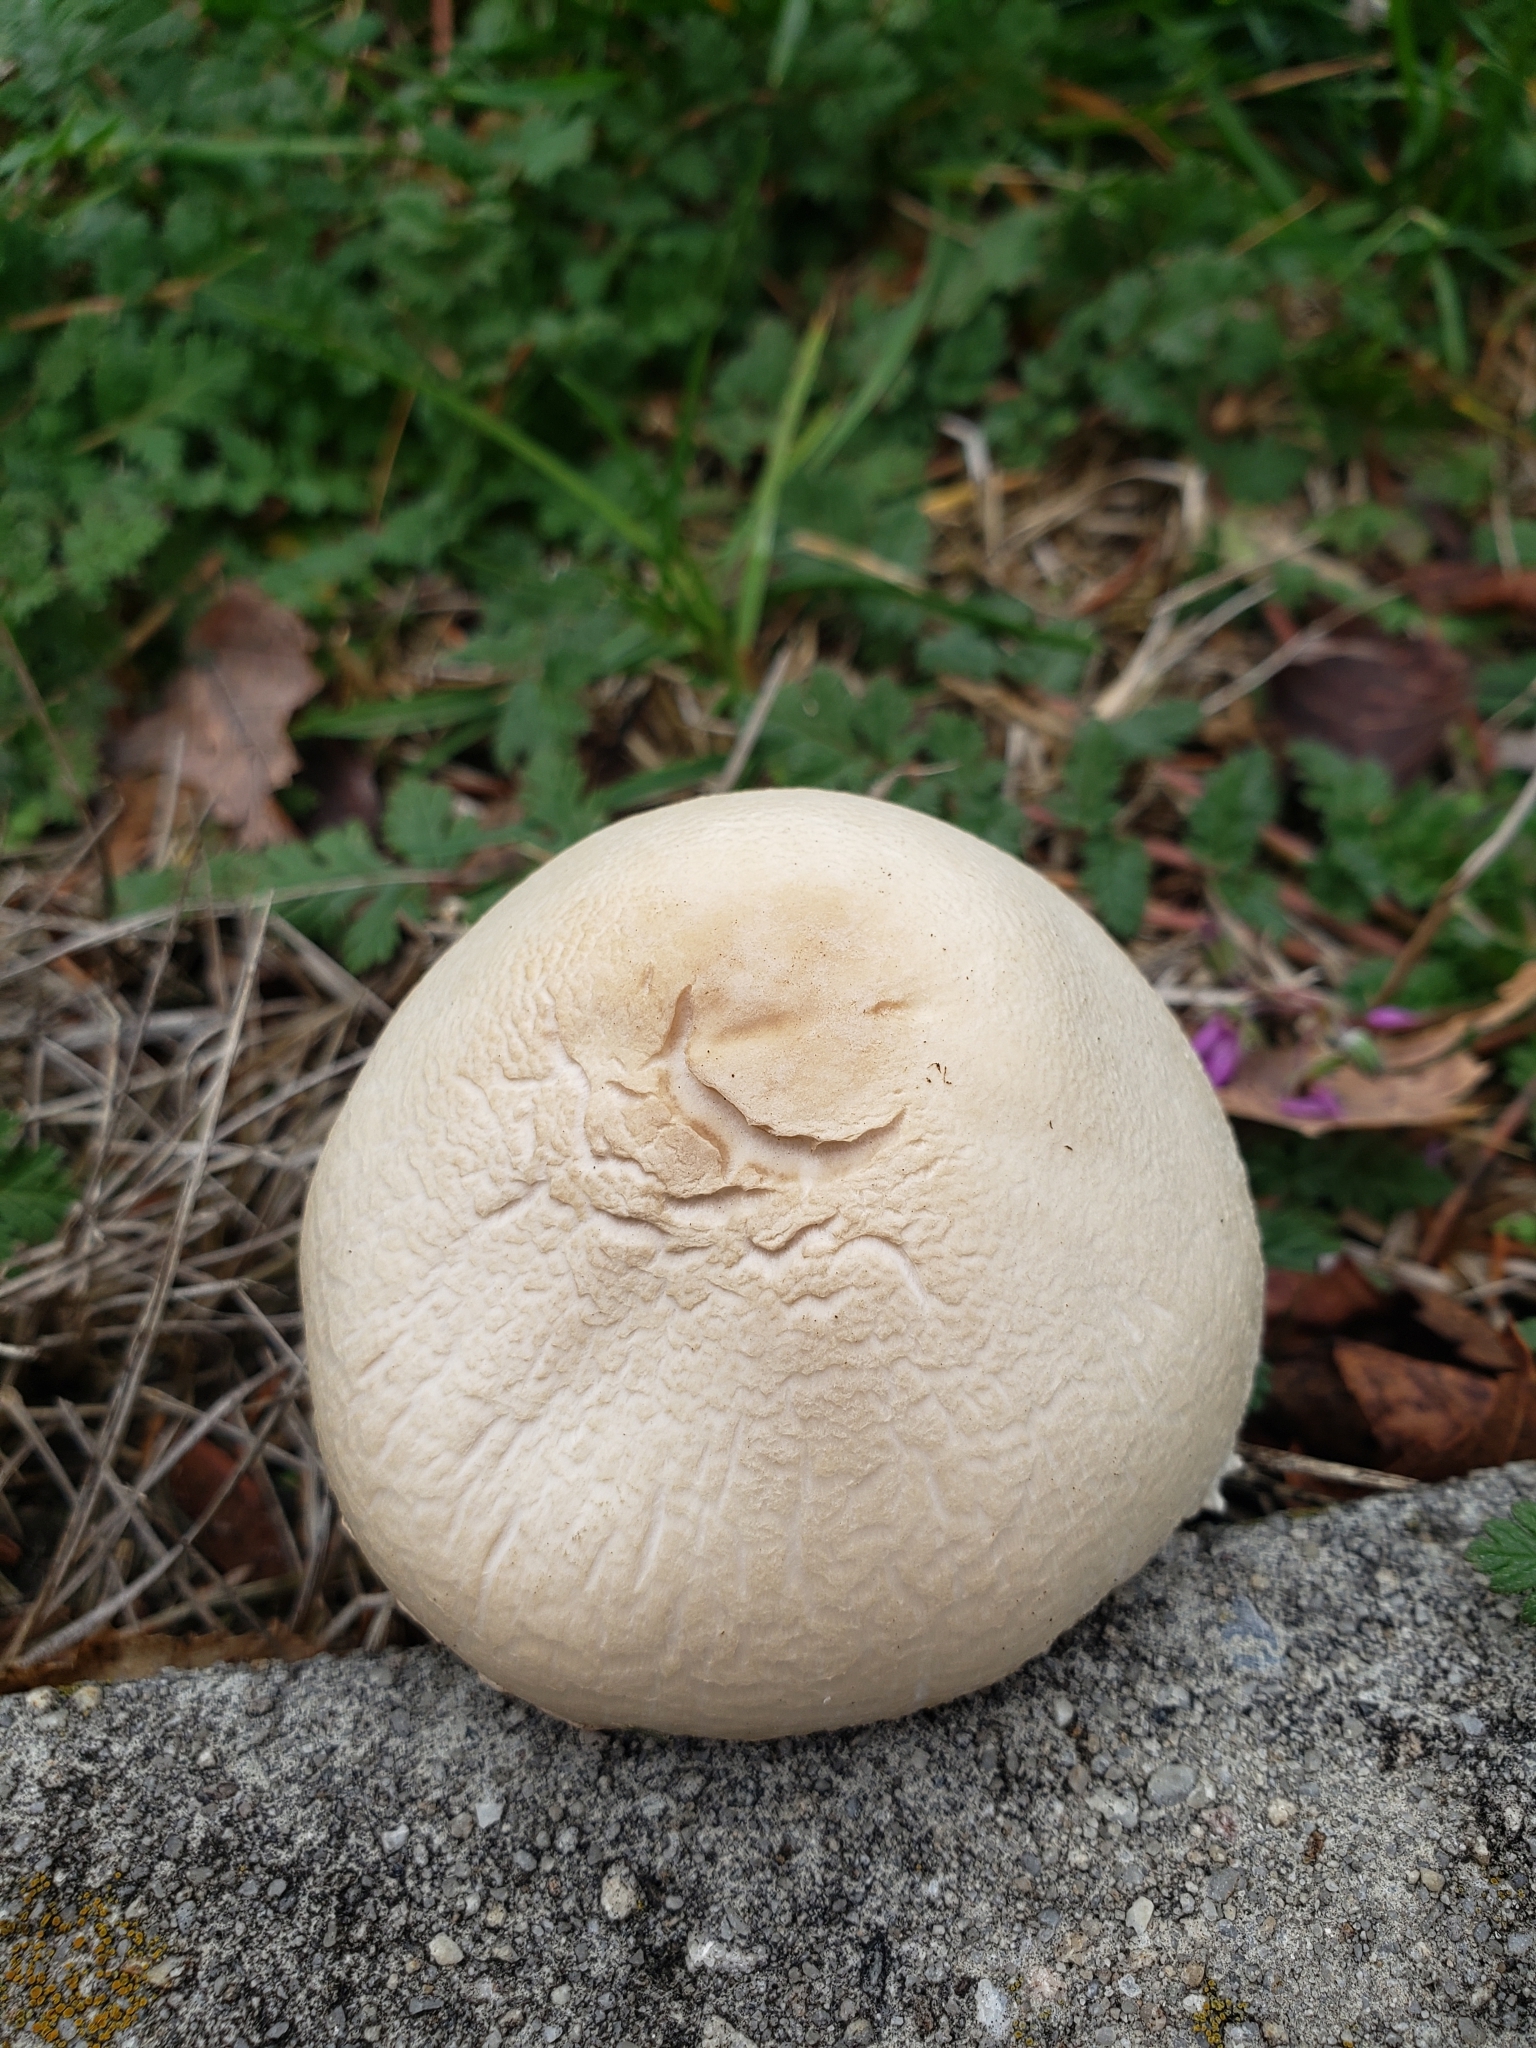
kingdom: Fungi
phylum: Basidiomycota
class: Agaricomycetes
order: Agaricales
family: Agaricaceae
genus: Leucoagaricus
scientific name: Leucoagaricus leucothites
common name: White dapperling
